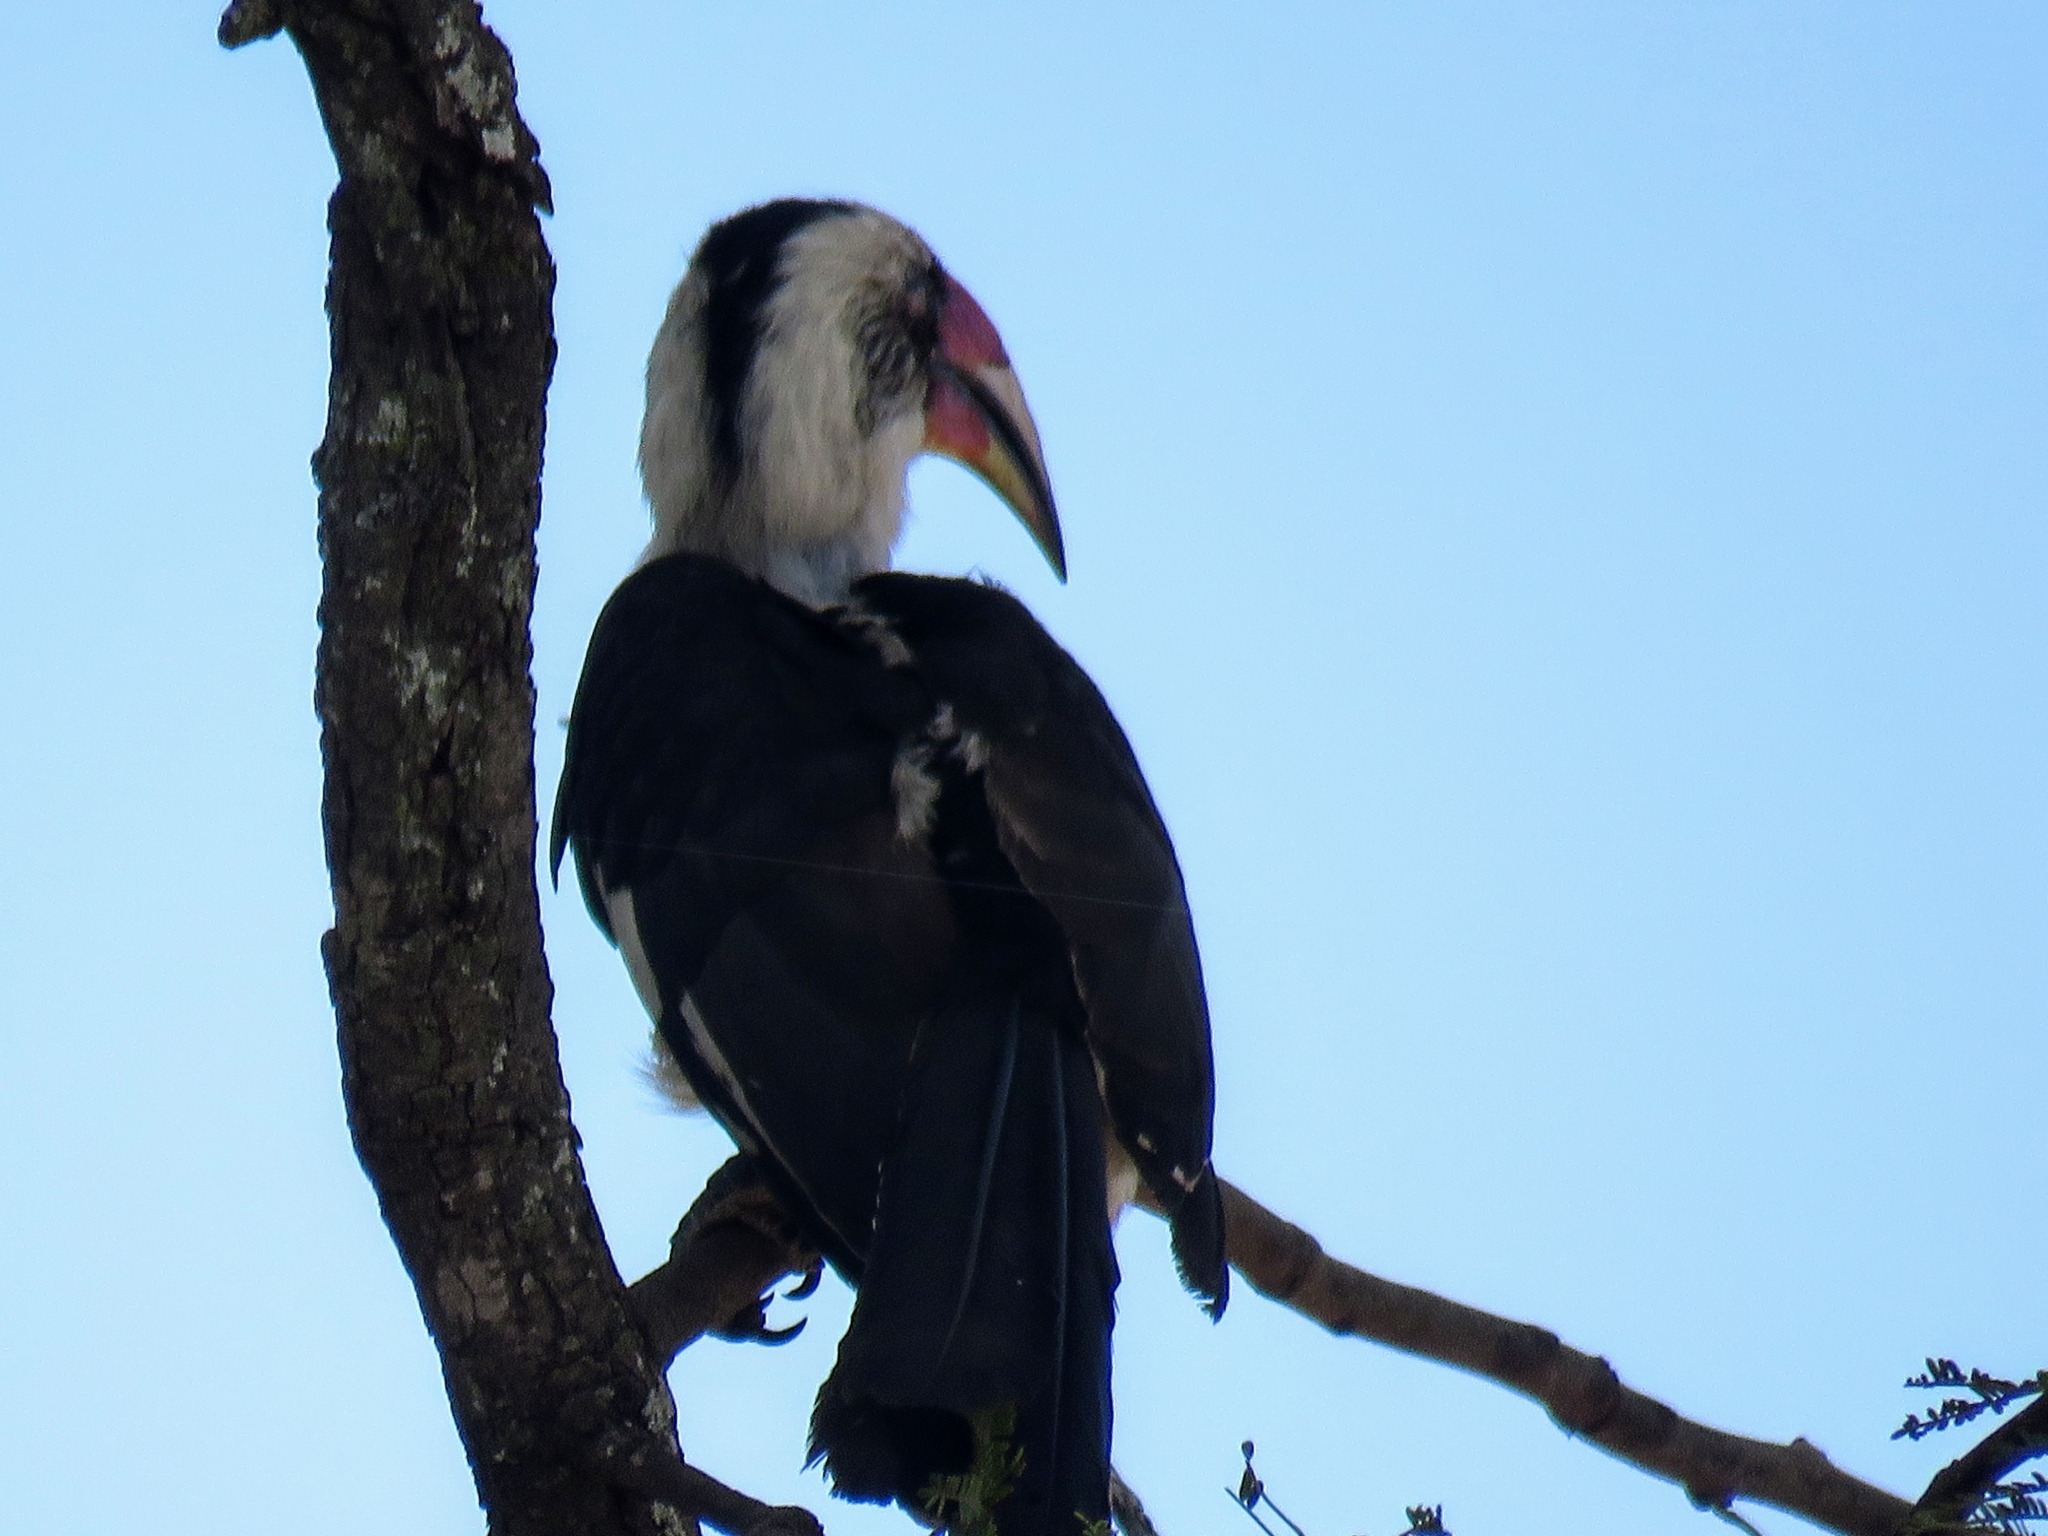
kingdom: Animalia
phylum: Chordata
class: Aves
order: Bucerotiformes
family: Bucerotidae
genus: Tockus
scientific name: Tockus deckeni
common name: Von der decken's hornbill
